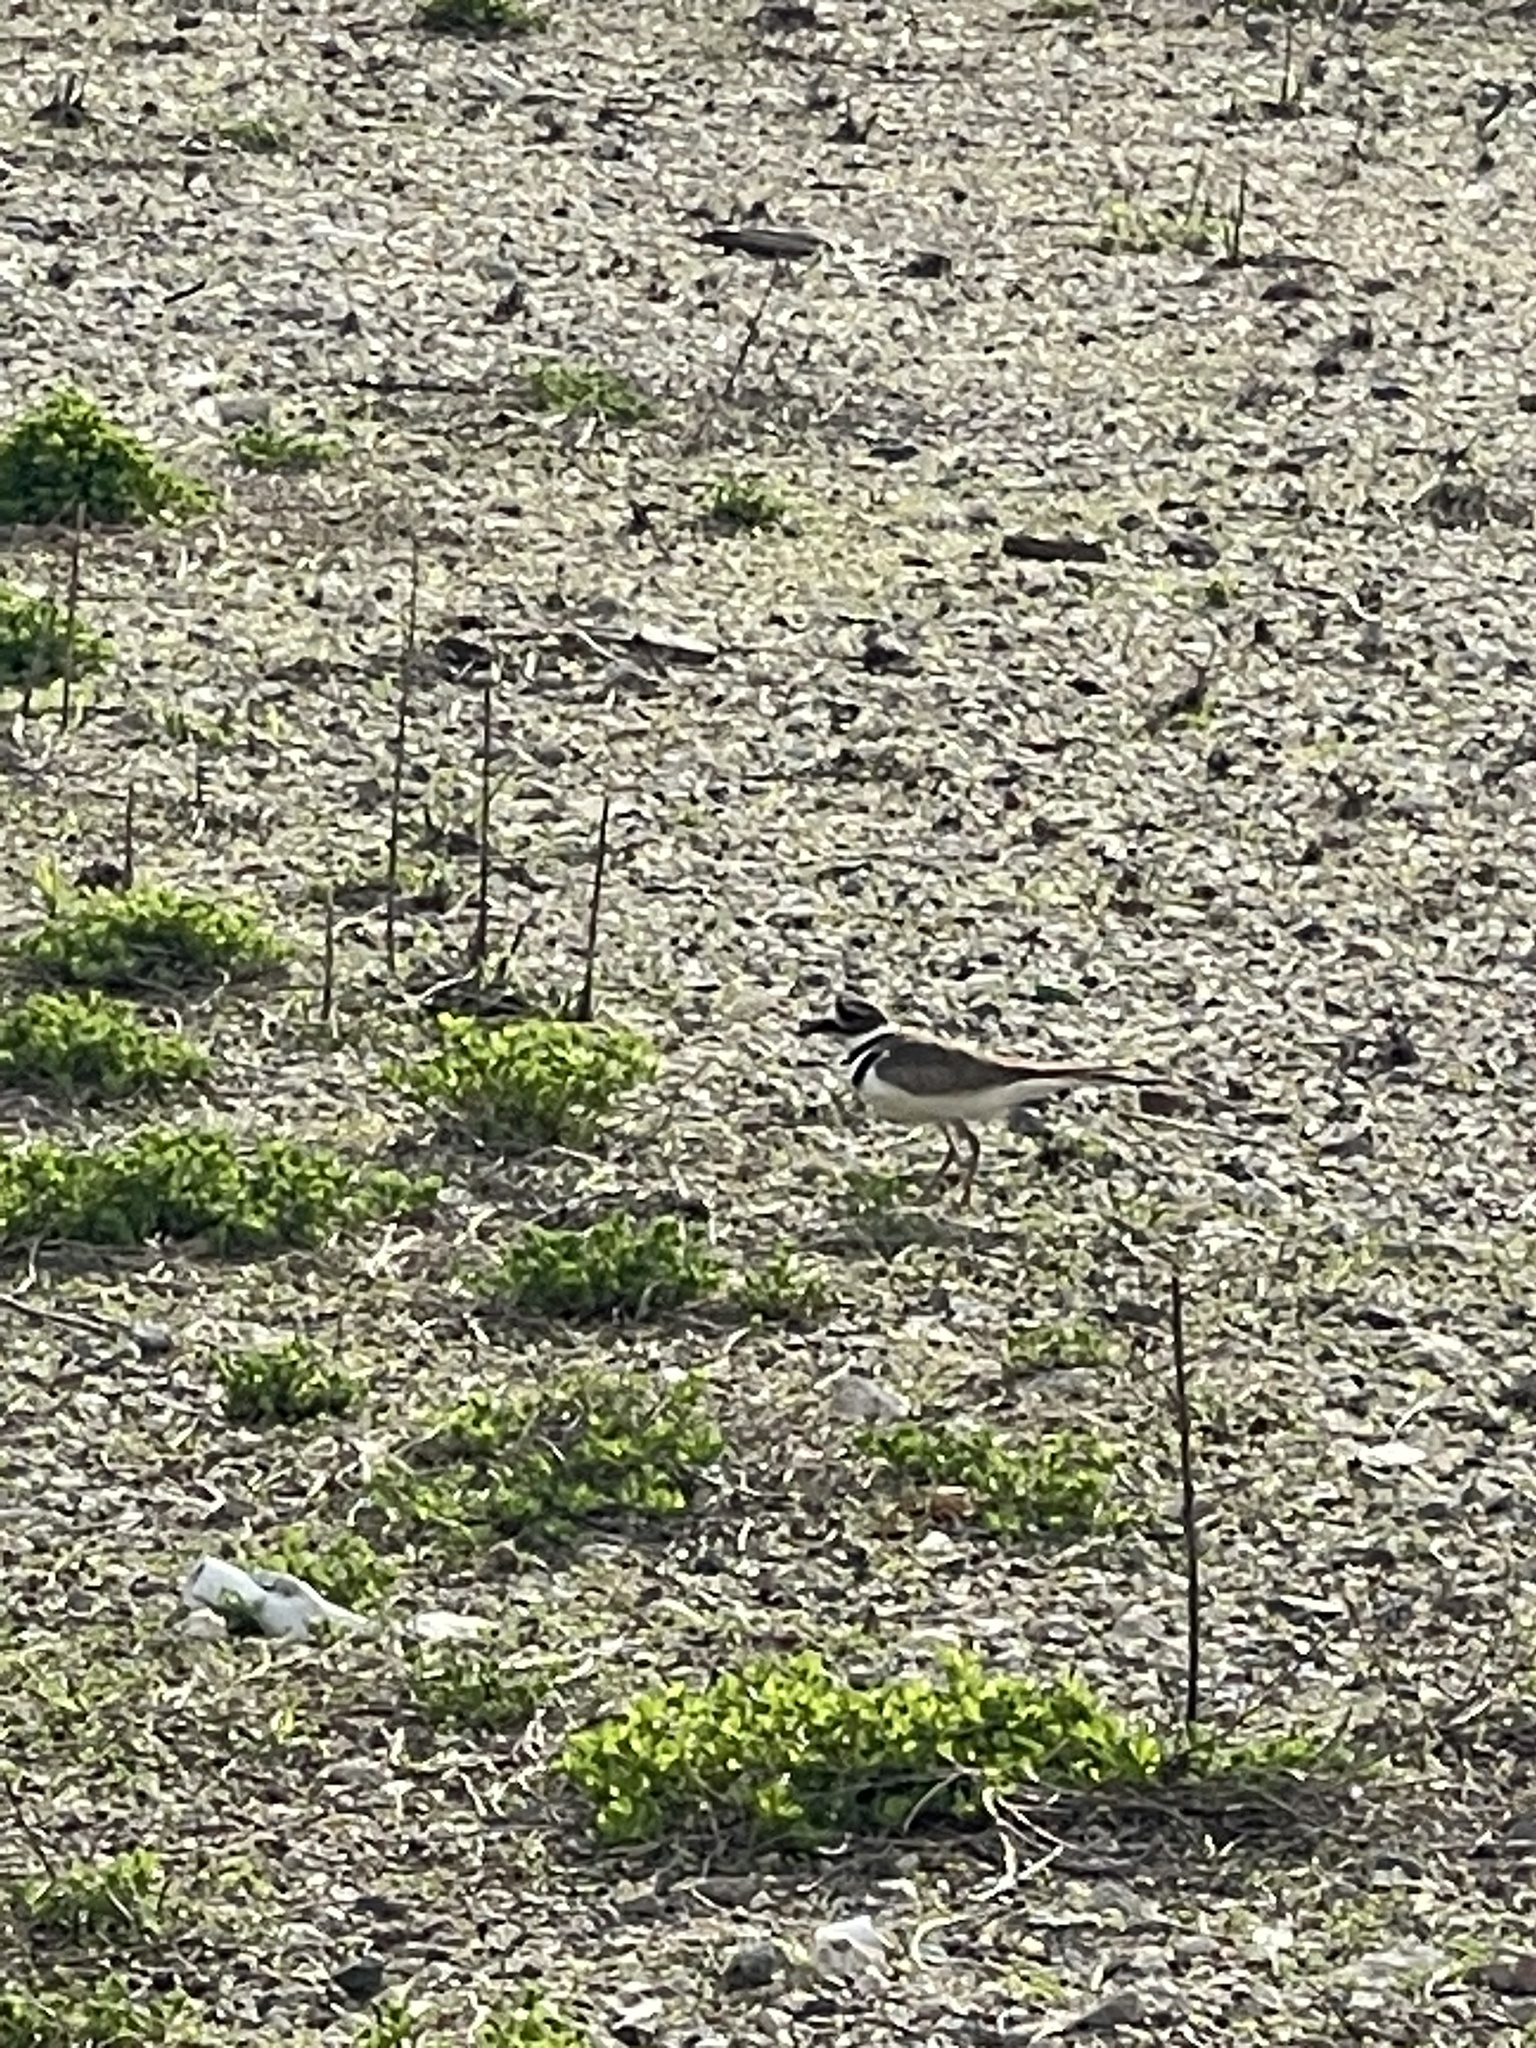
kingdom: Animalia
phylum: Chordata
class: Aves
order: Charadriiformes
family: Charadriidae
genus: Charadrius
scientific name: Charadrius vociferus
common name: Killdeer
